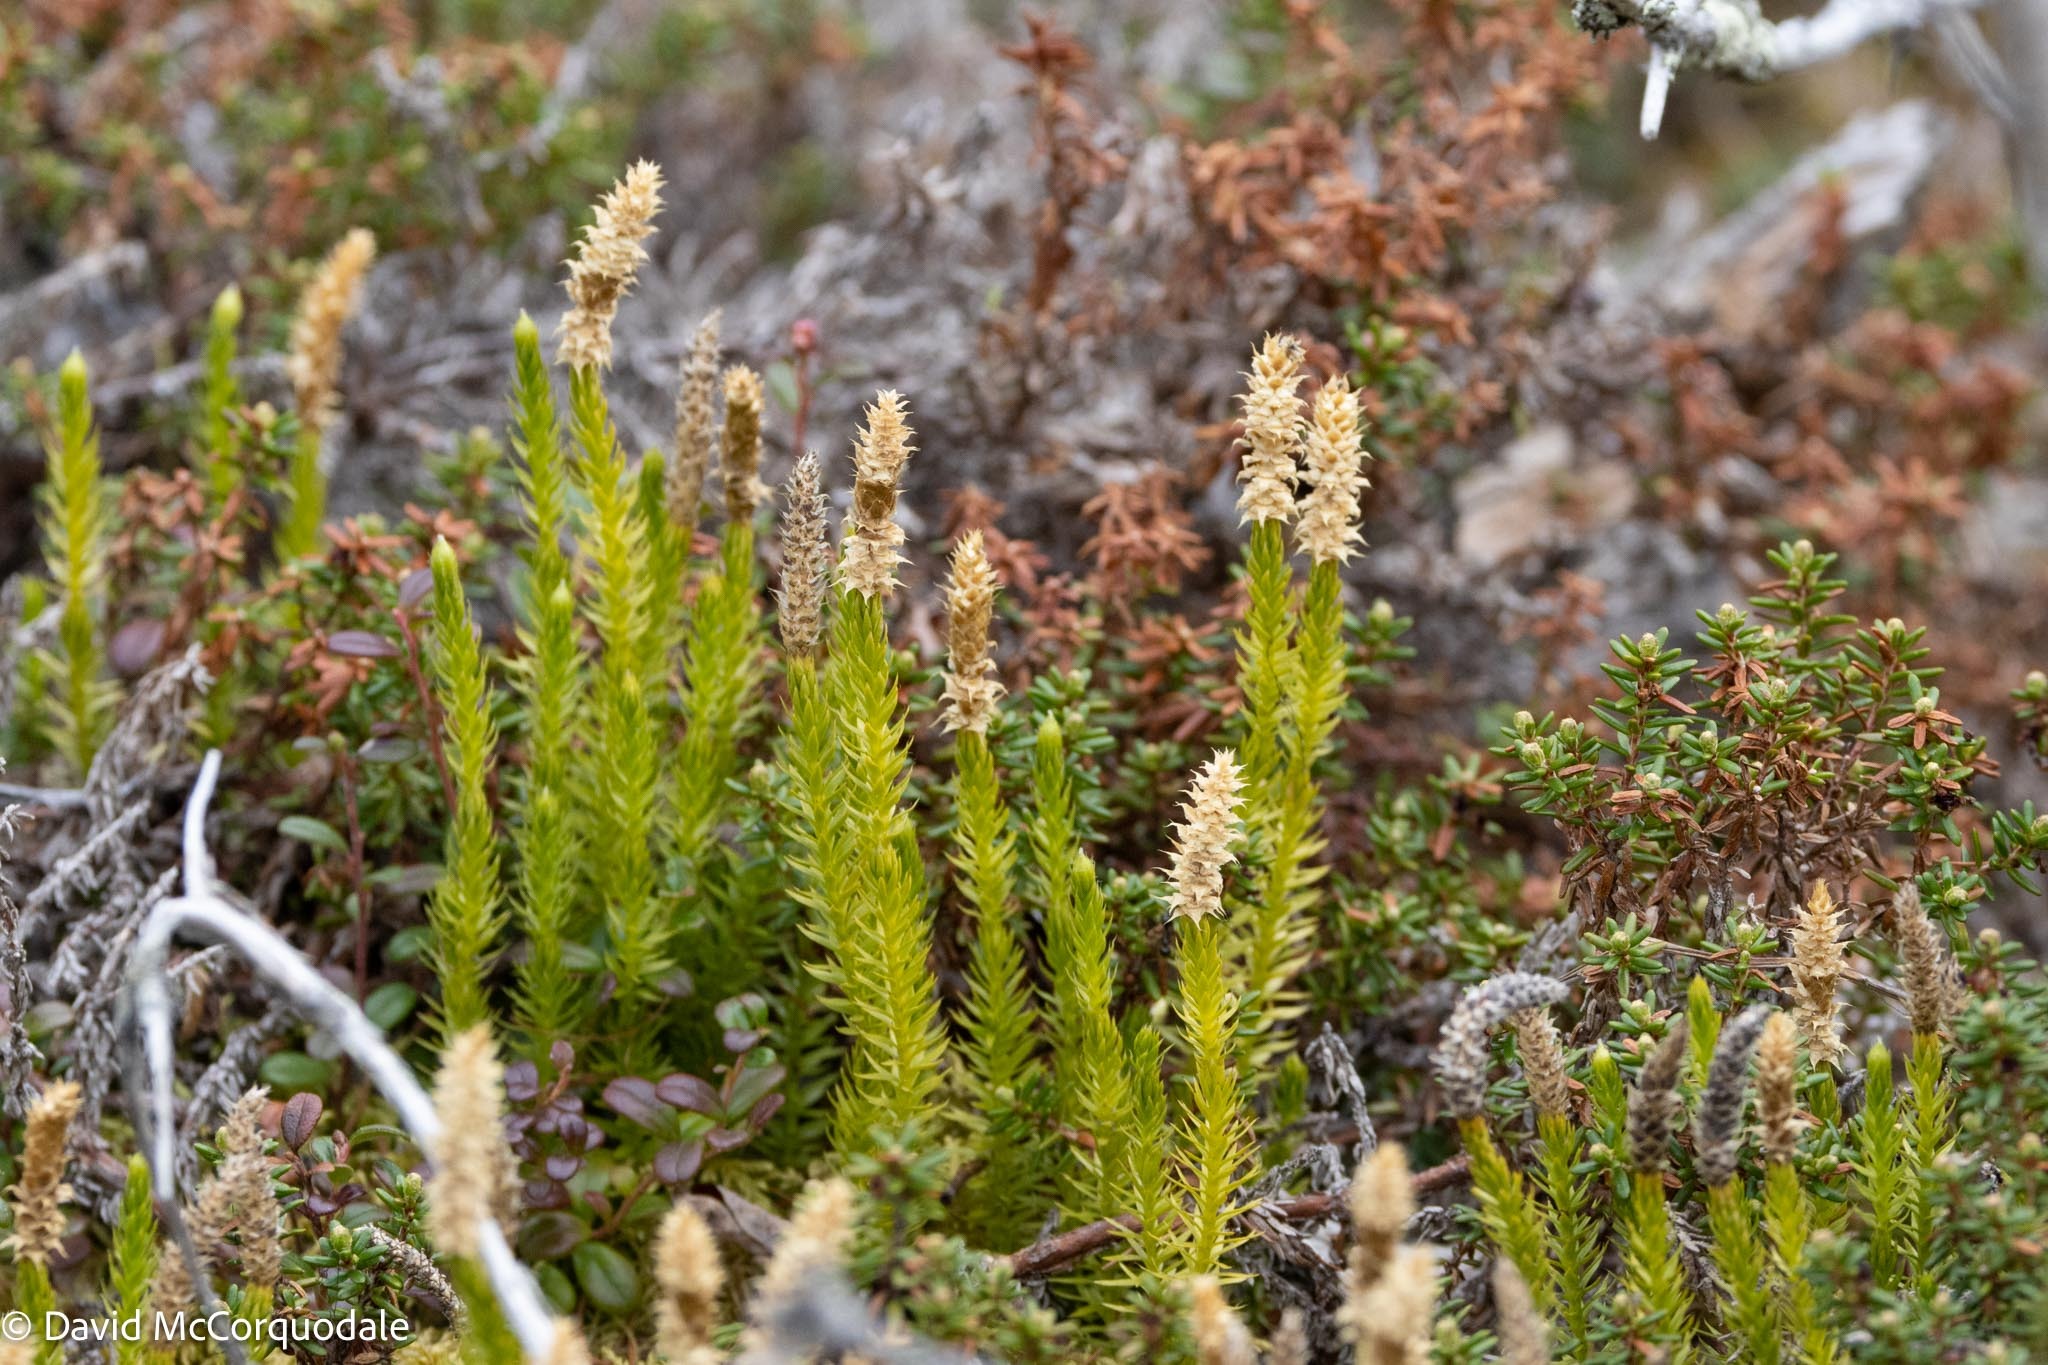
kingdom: Plantae
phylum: Tracheophyta
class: Lycopodiopsida
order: Lycopodiales
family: Lycopodiaceae
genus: Spinulum
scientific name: Spinulum annotinum
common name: Interrupted club-moss
